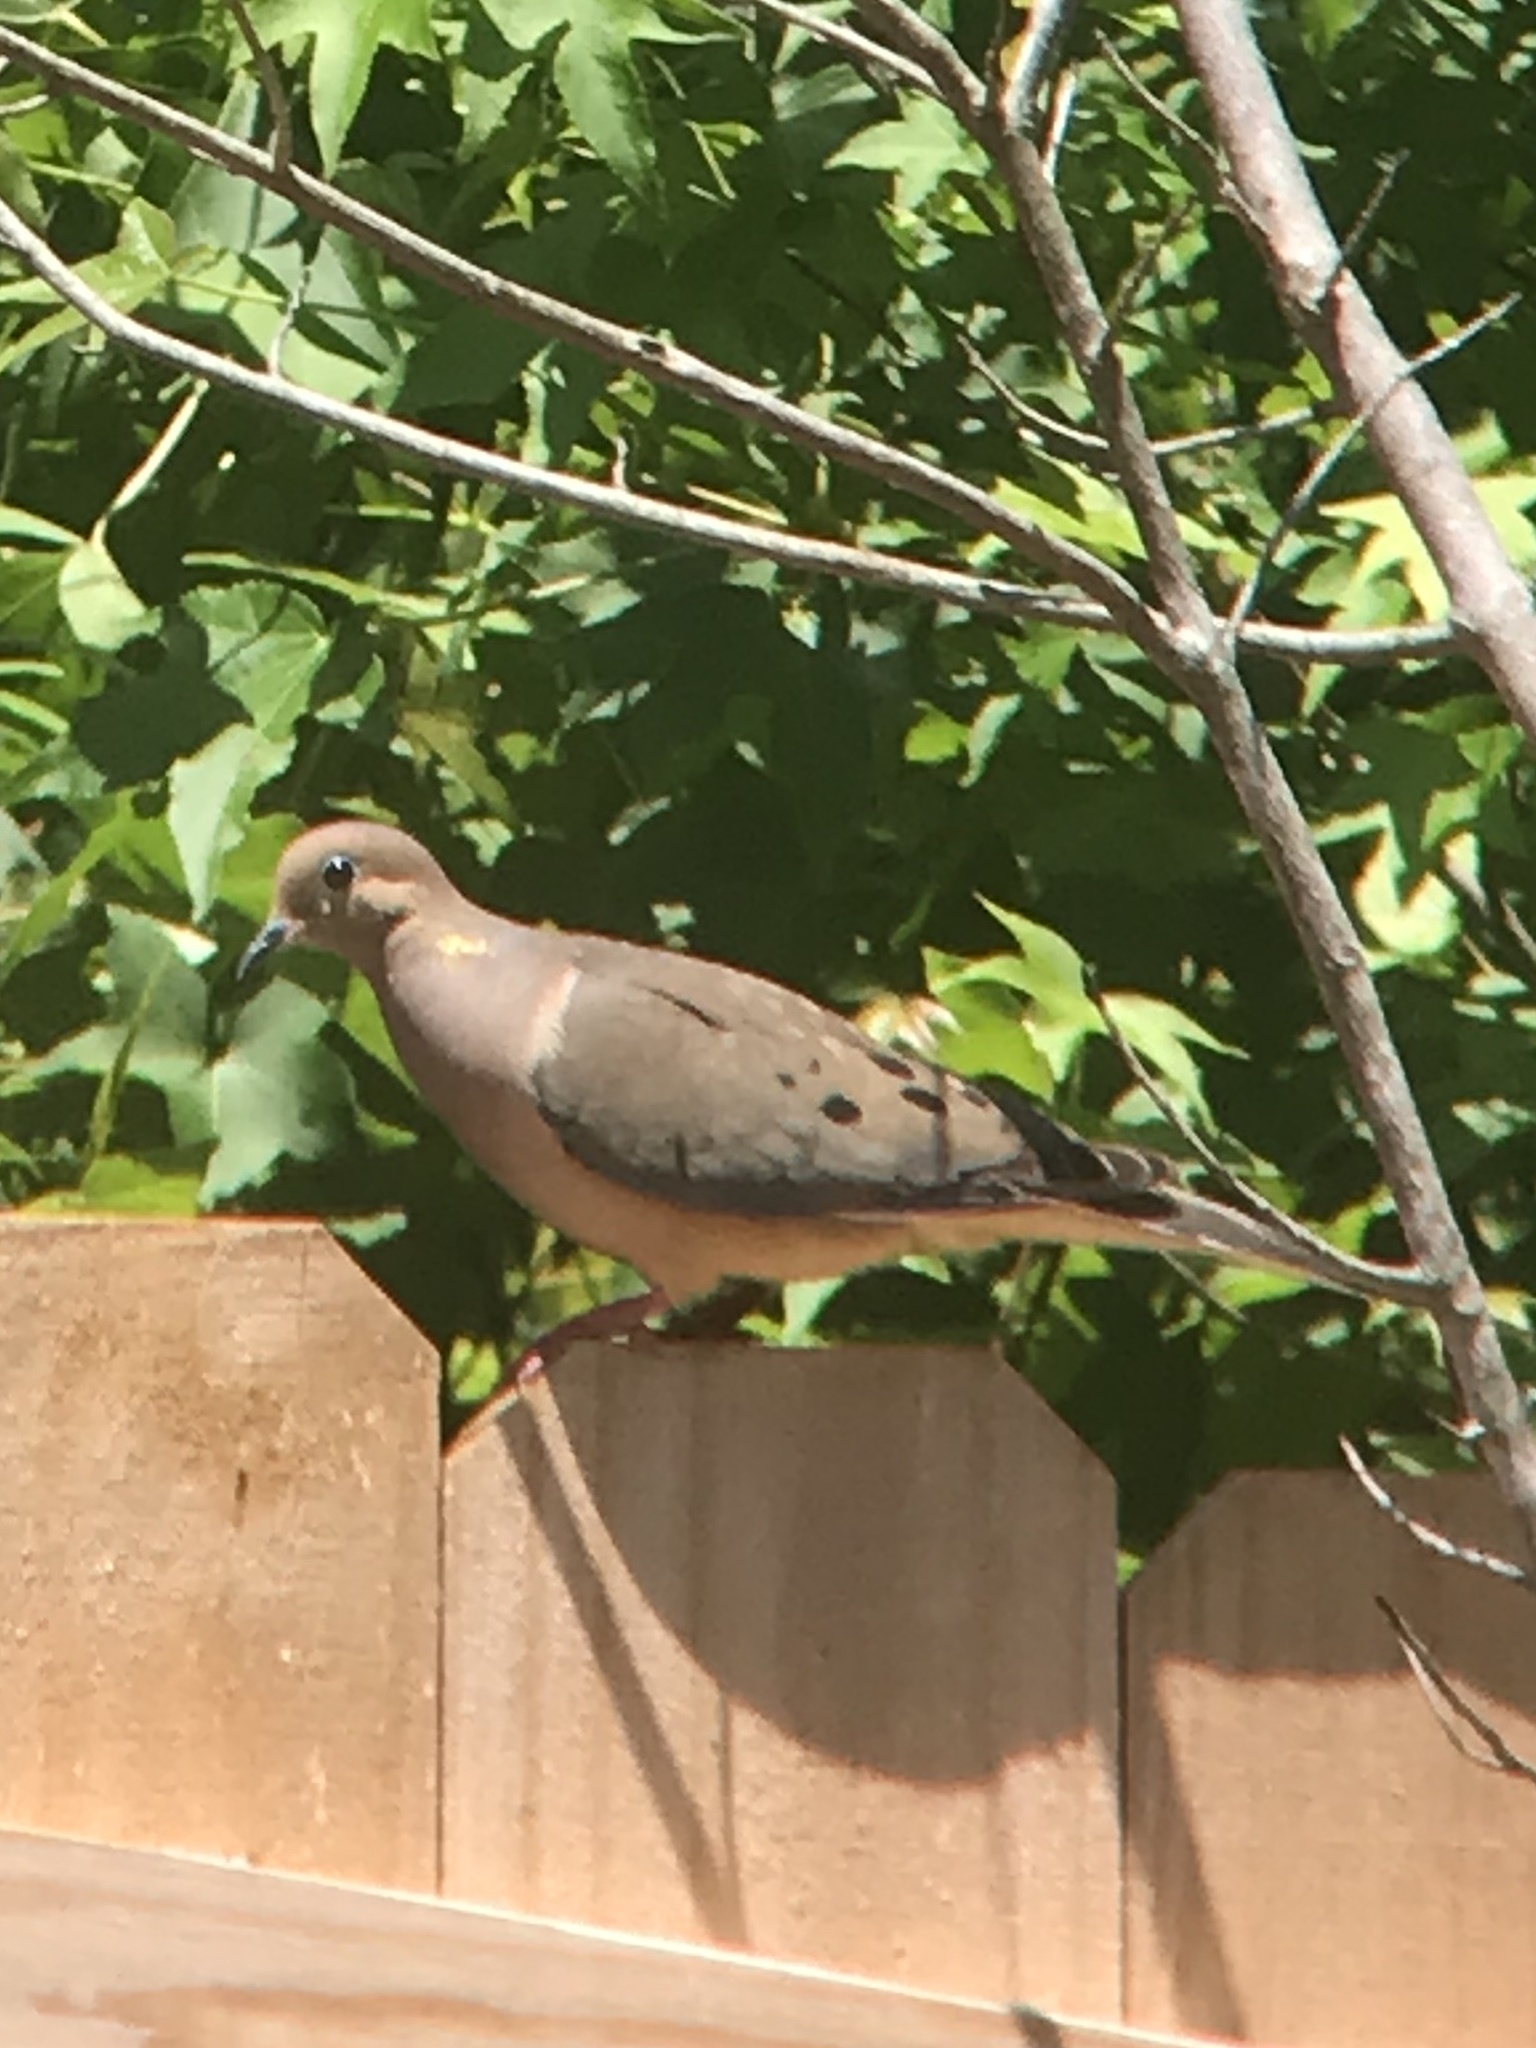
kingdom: Animalia
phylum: Chordata
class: Aves
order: Columbiformes
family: Columbidae
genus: Zenaida
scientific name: Zenaida macroura
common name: Mourning dove
